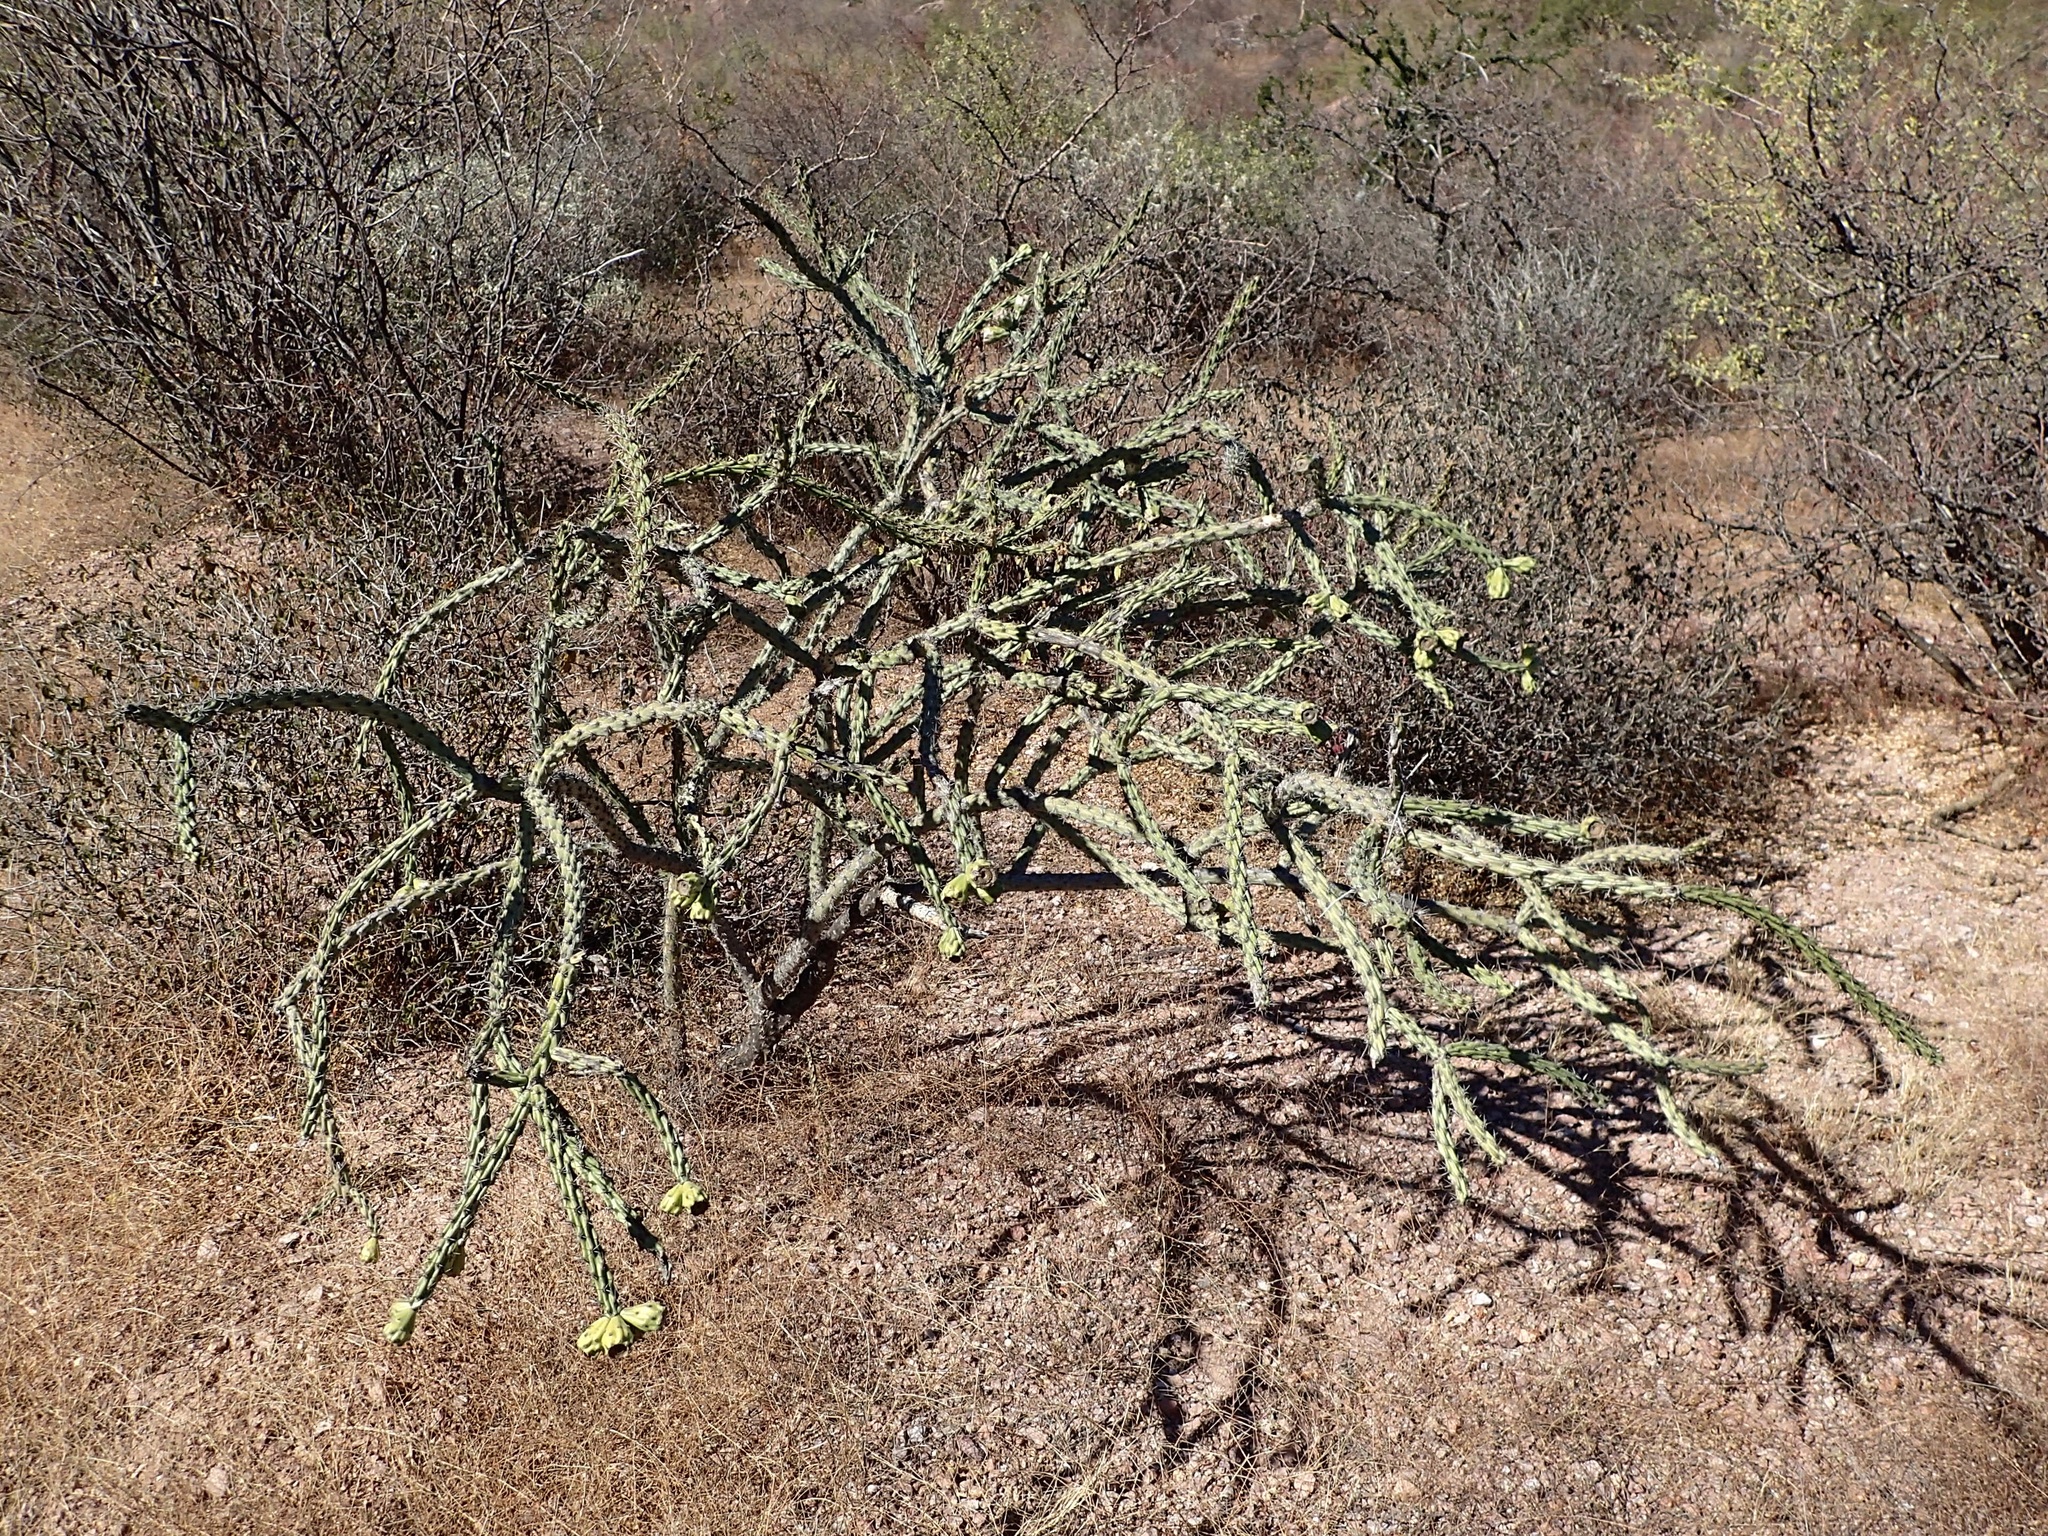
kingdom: Plantae
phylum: Tracheophyta
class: Magnoliopsida
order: Caryophyllales
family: Cactaceae
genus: Cylindropuntia
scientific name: Cylindropuntia thurberi
